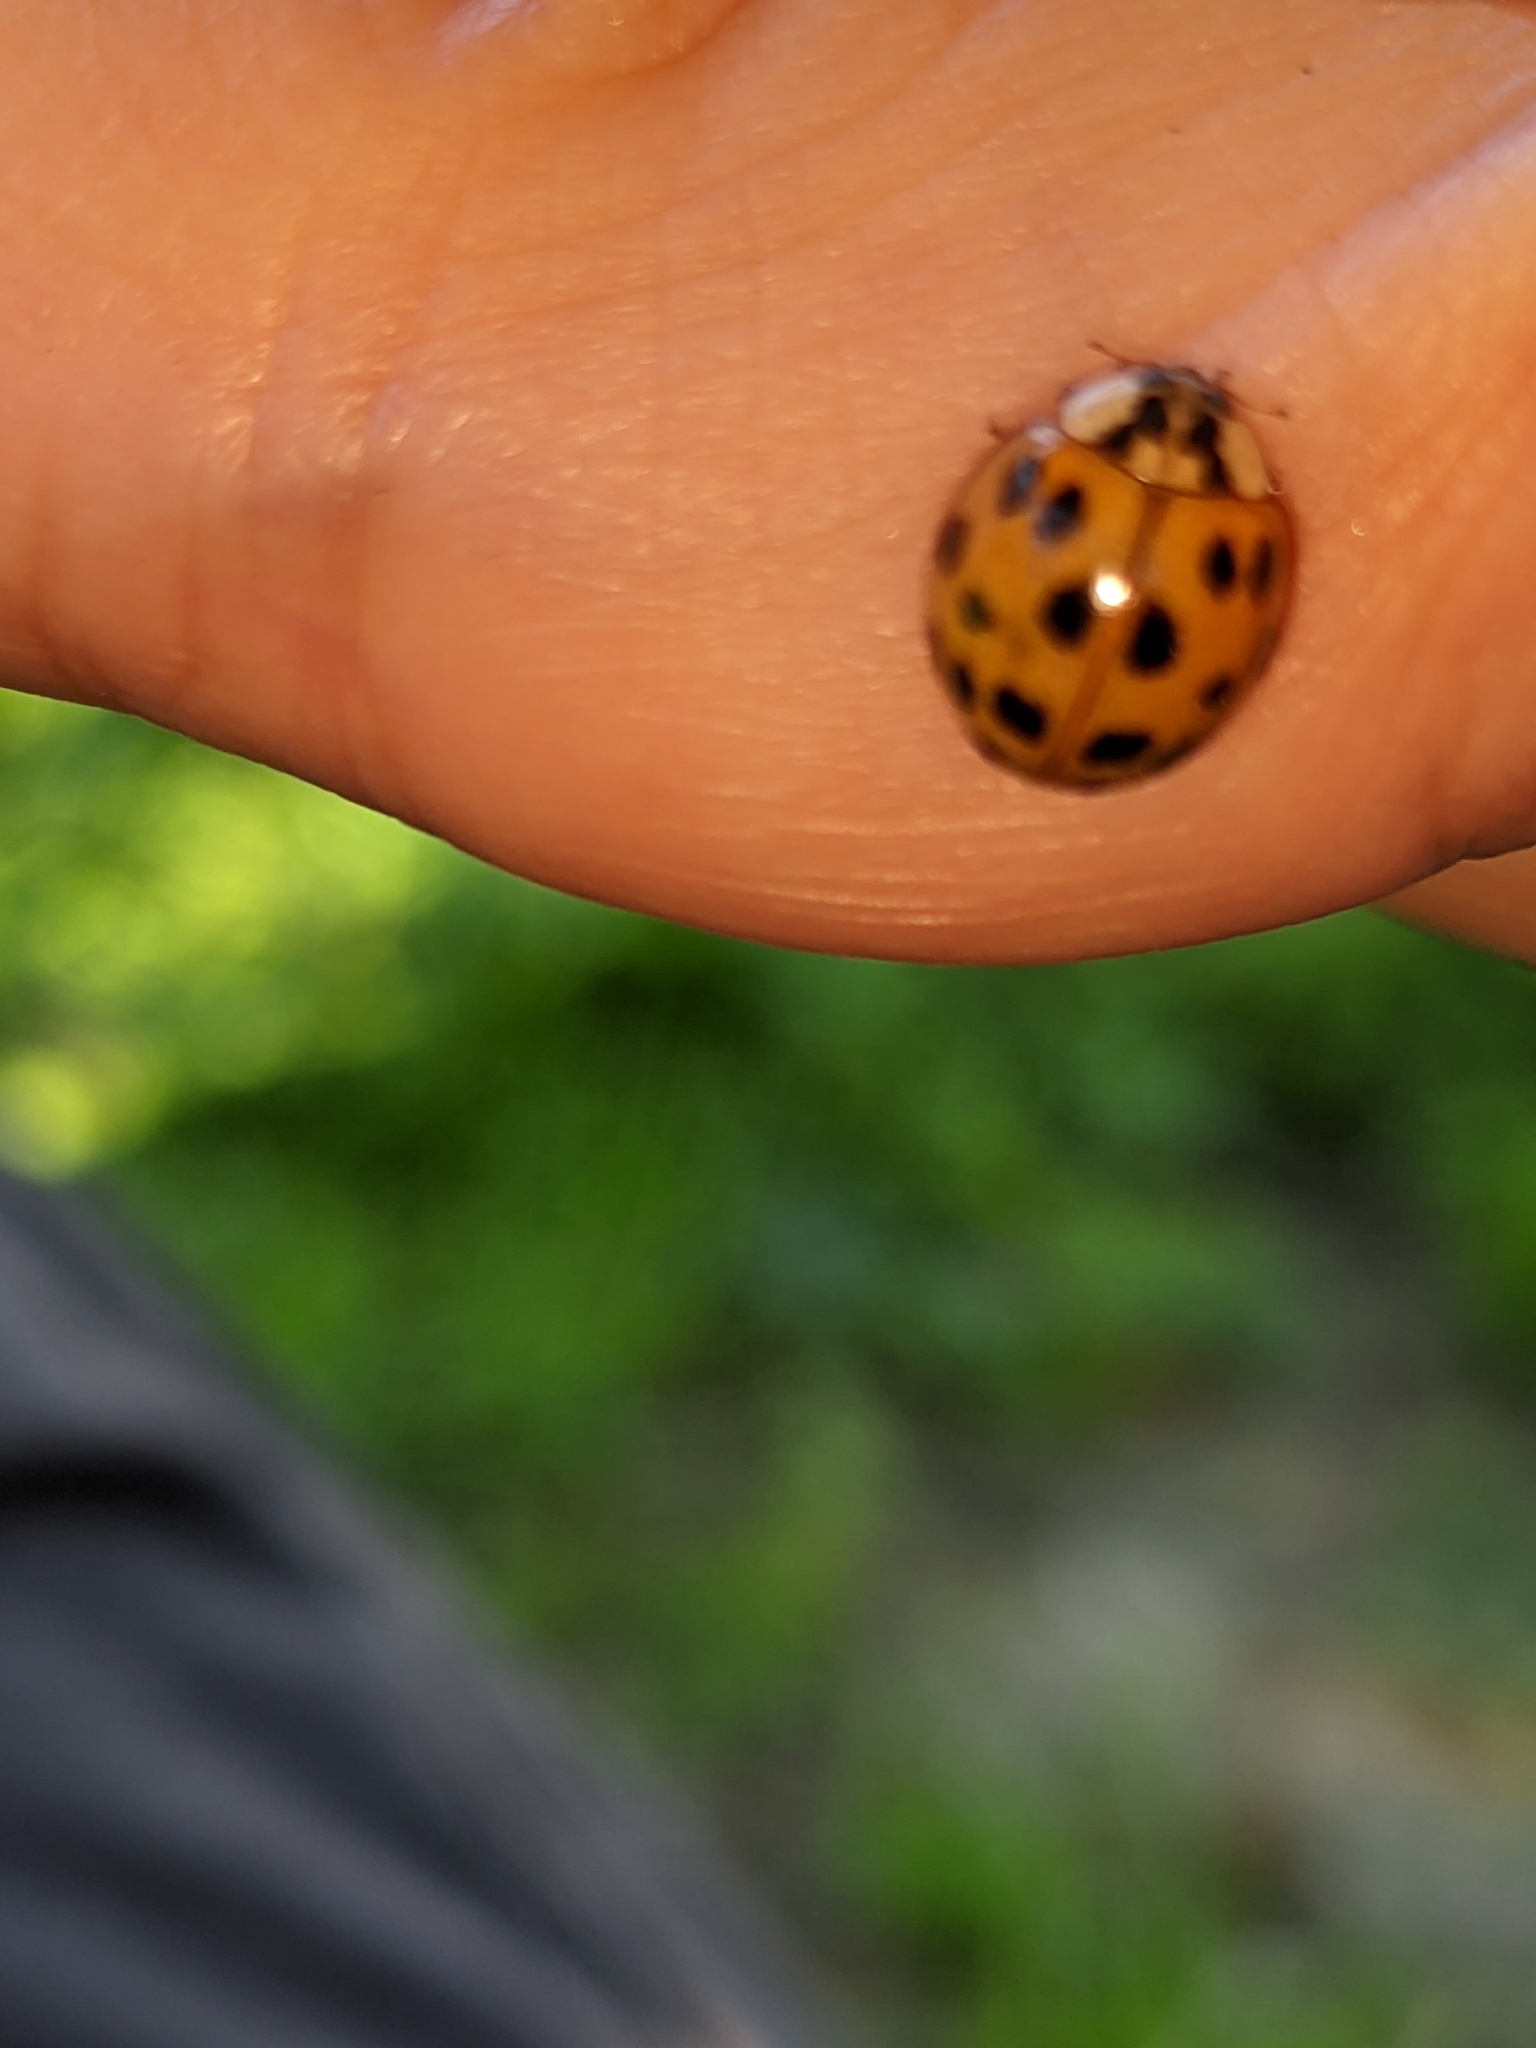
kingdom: Animalia
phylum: Arthropoda
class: Insecta
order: Coleoptera
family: Coccinellidae
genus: Harmonia
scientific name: Harmonia axyridis
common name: Harlequin ladybird
